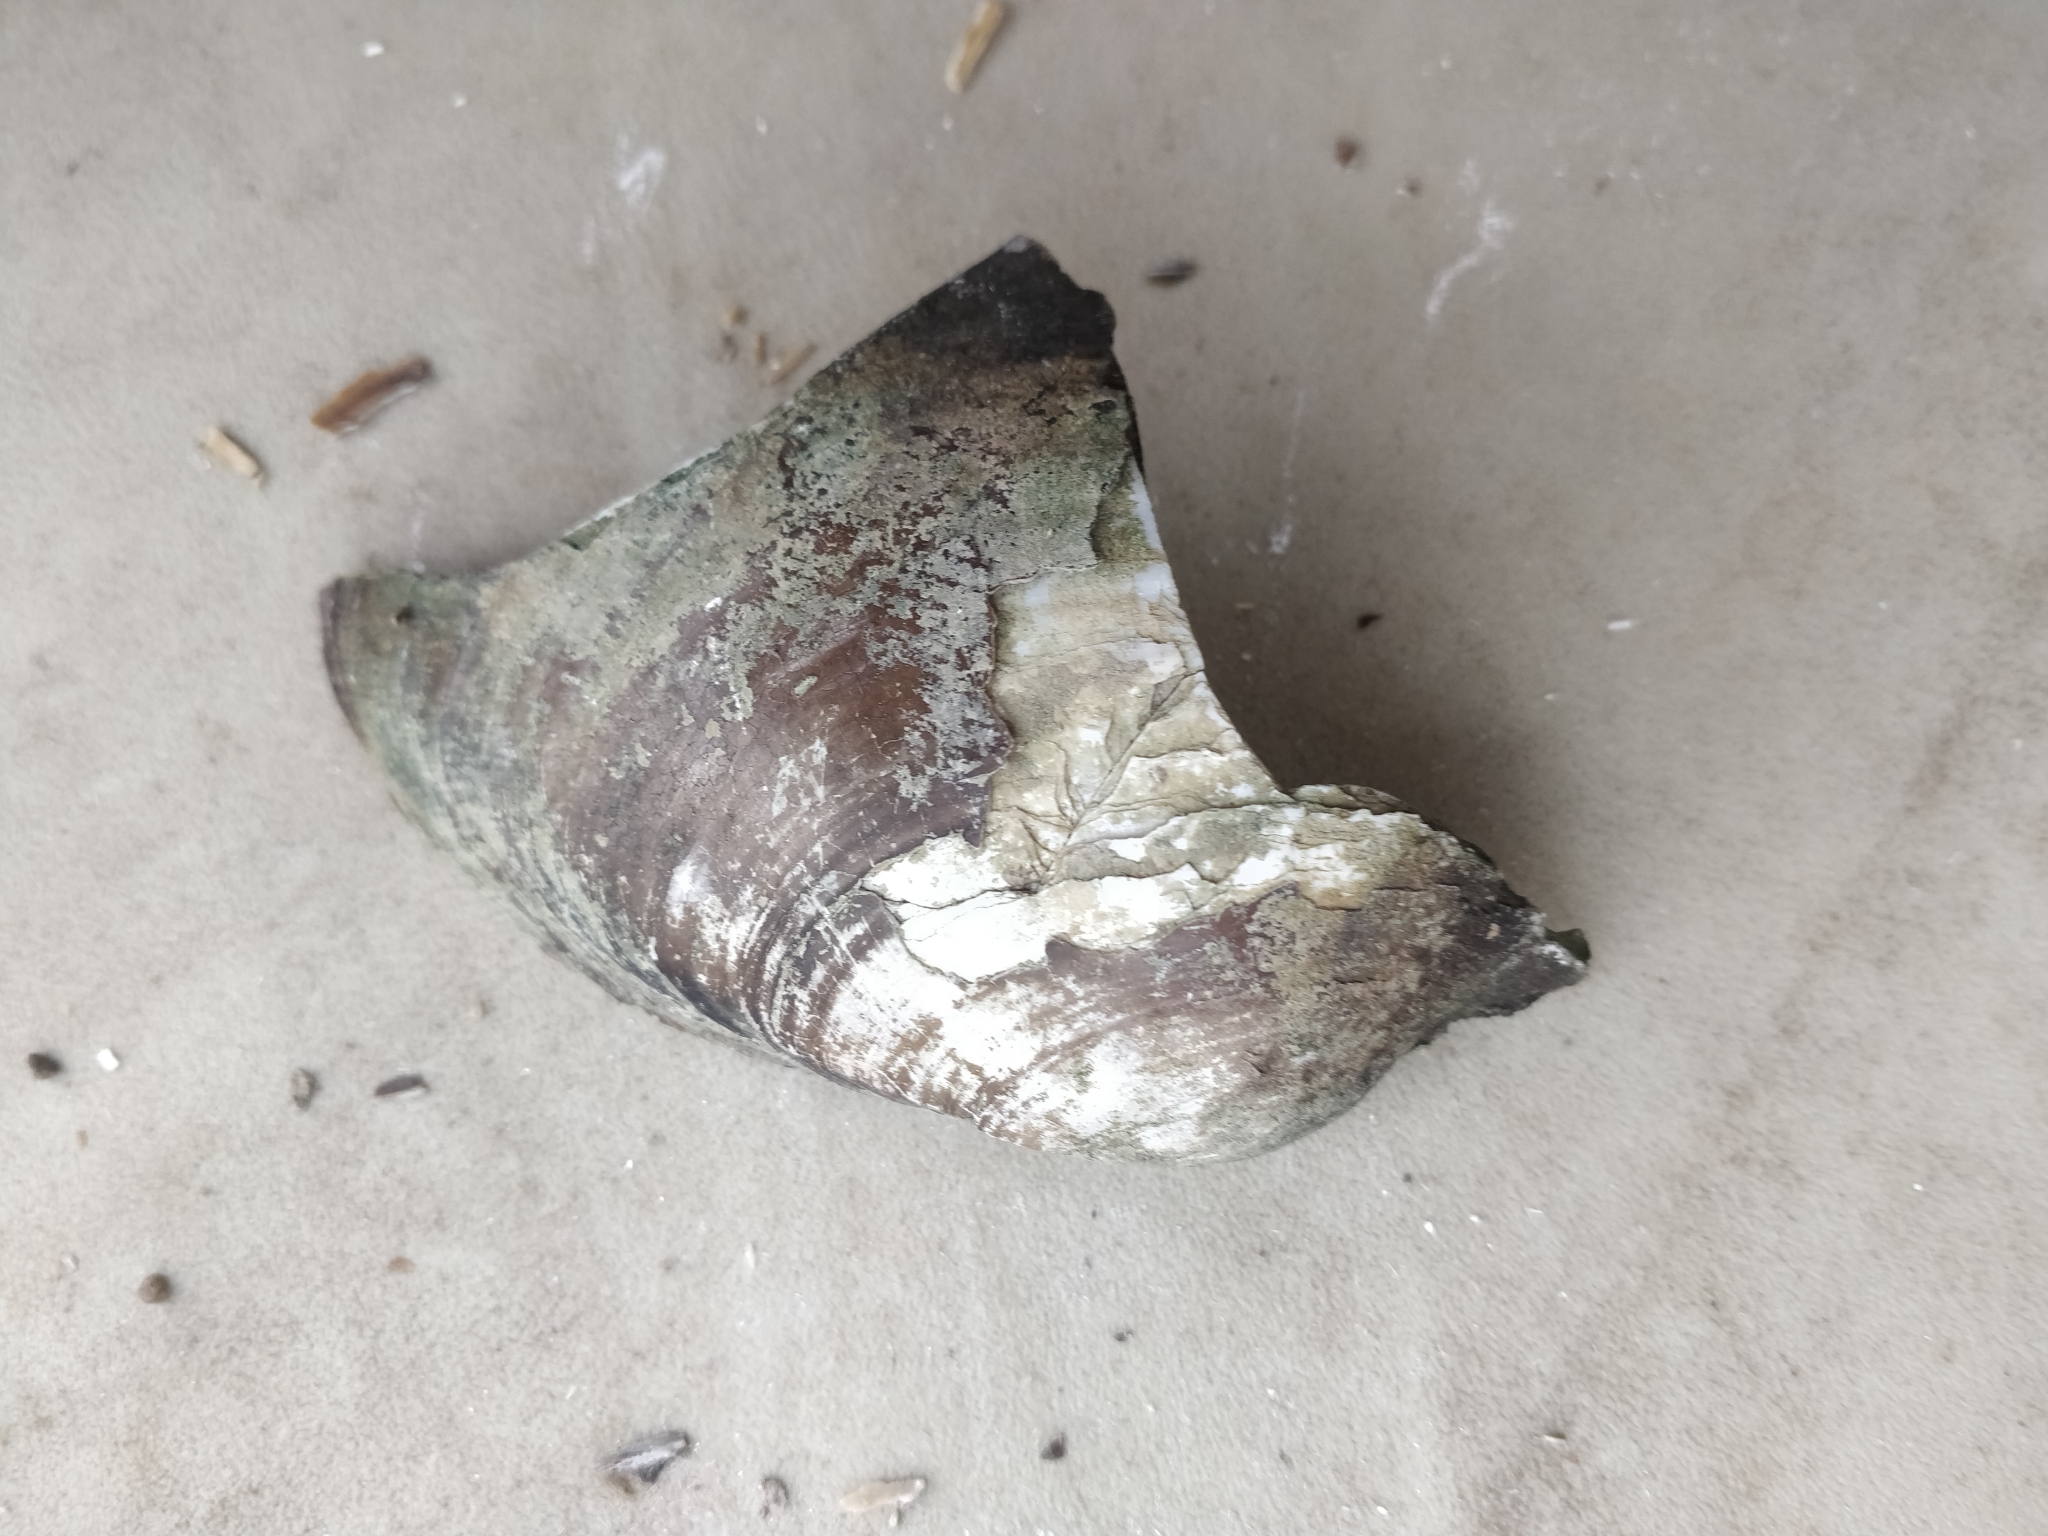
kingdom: Animalia
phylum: Mollusca
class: Bivalvia
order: Unionida
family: Unionidae
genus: Lampsilis
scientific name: Lampsilis cardium
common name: Plain pocketbook
